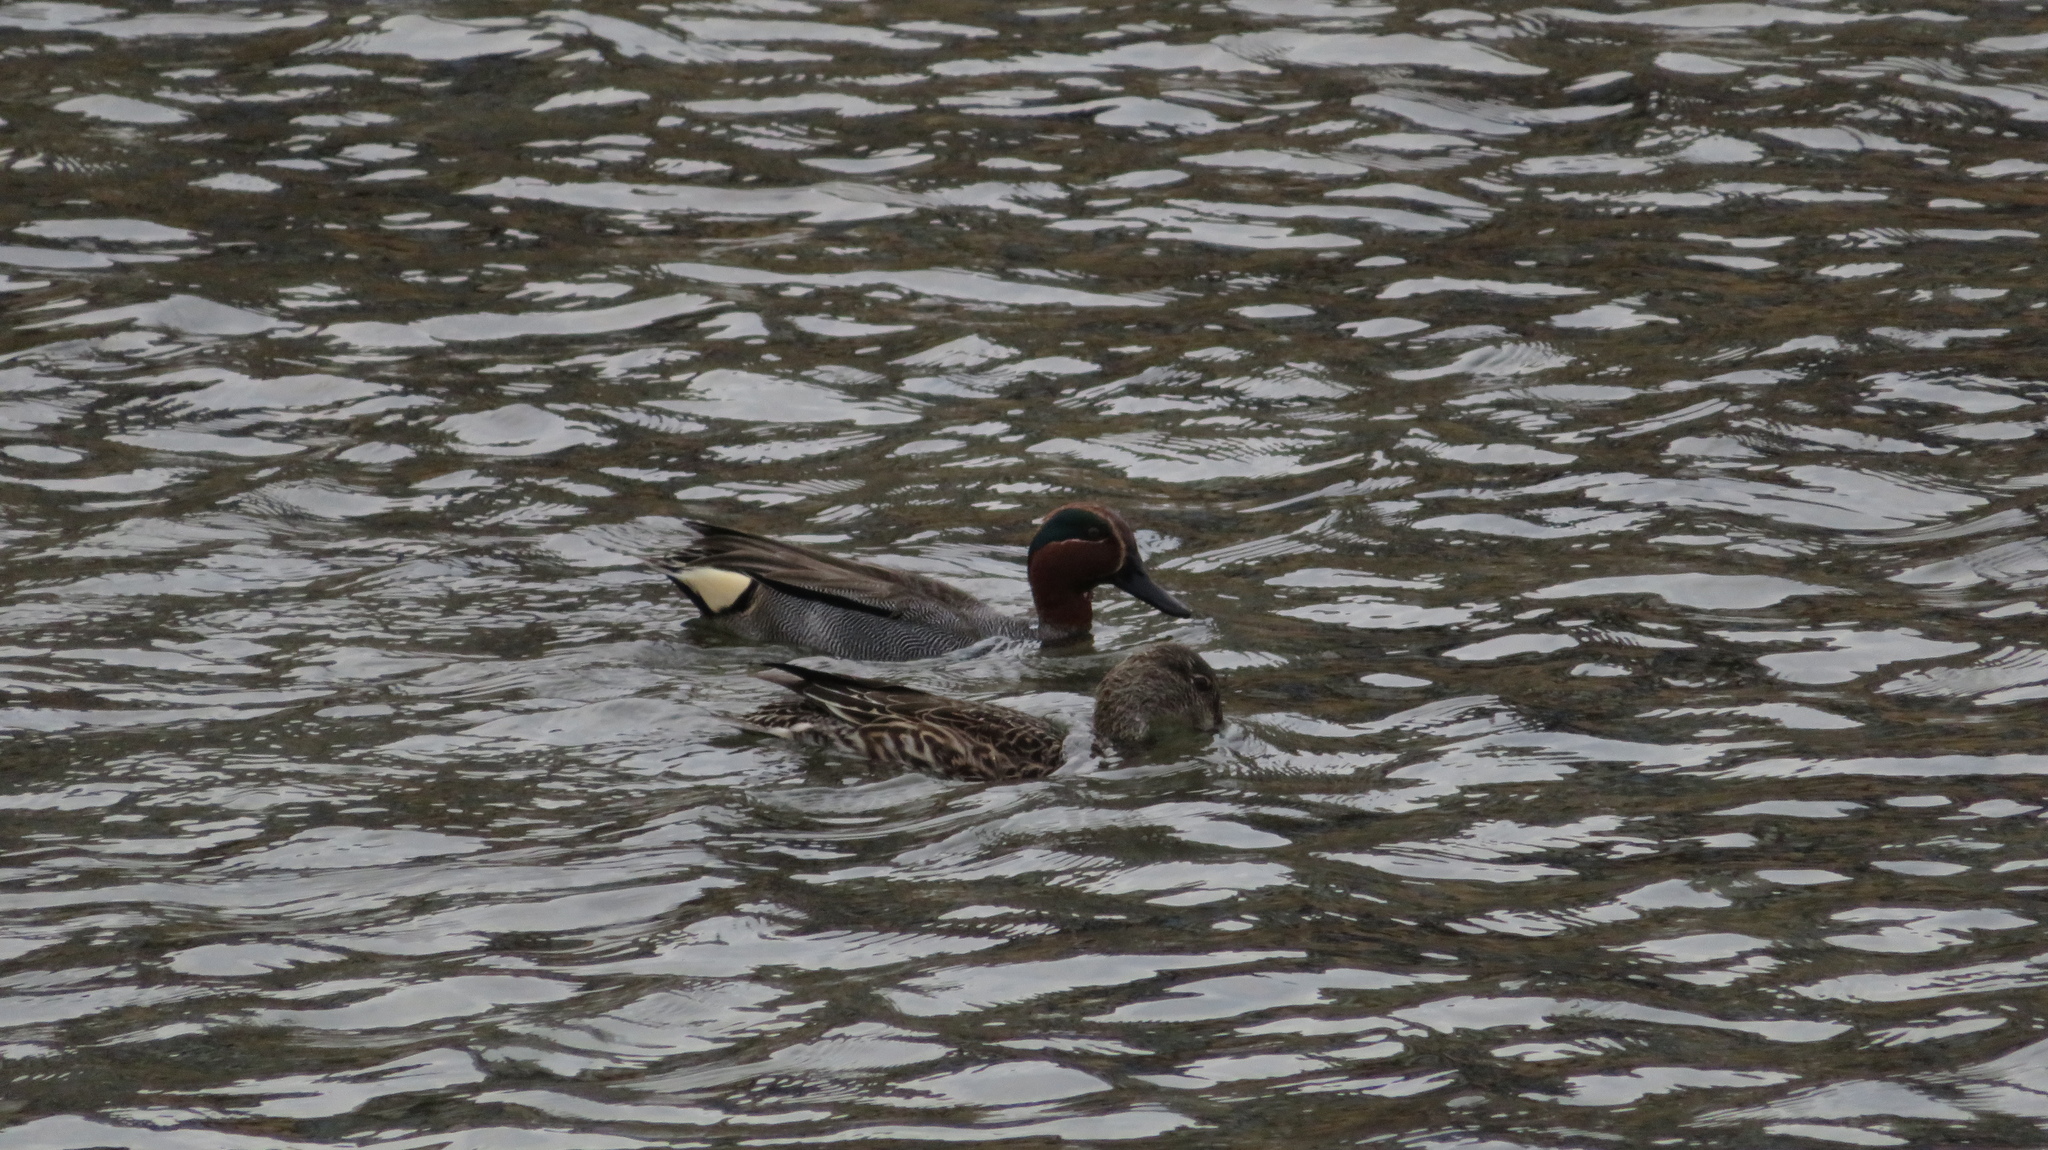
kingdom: Animalia
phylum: Chordata
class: Aves
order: Anseriformes
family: Anatidae
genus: Anas
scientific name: Anas crecca
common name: Eurasian teal
